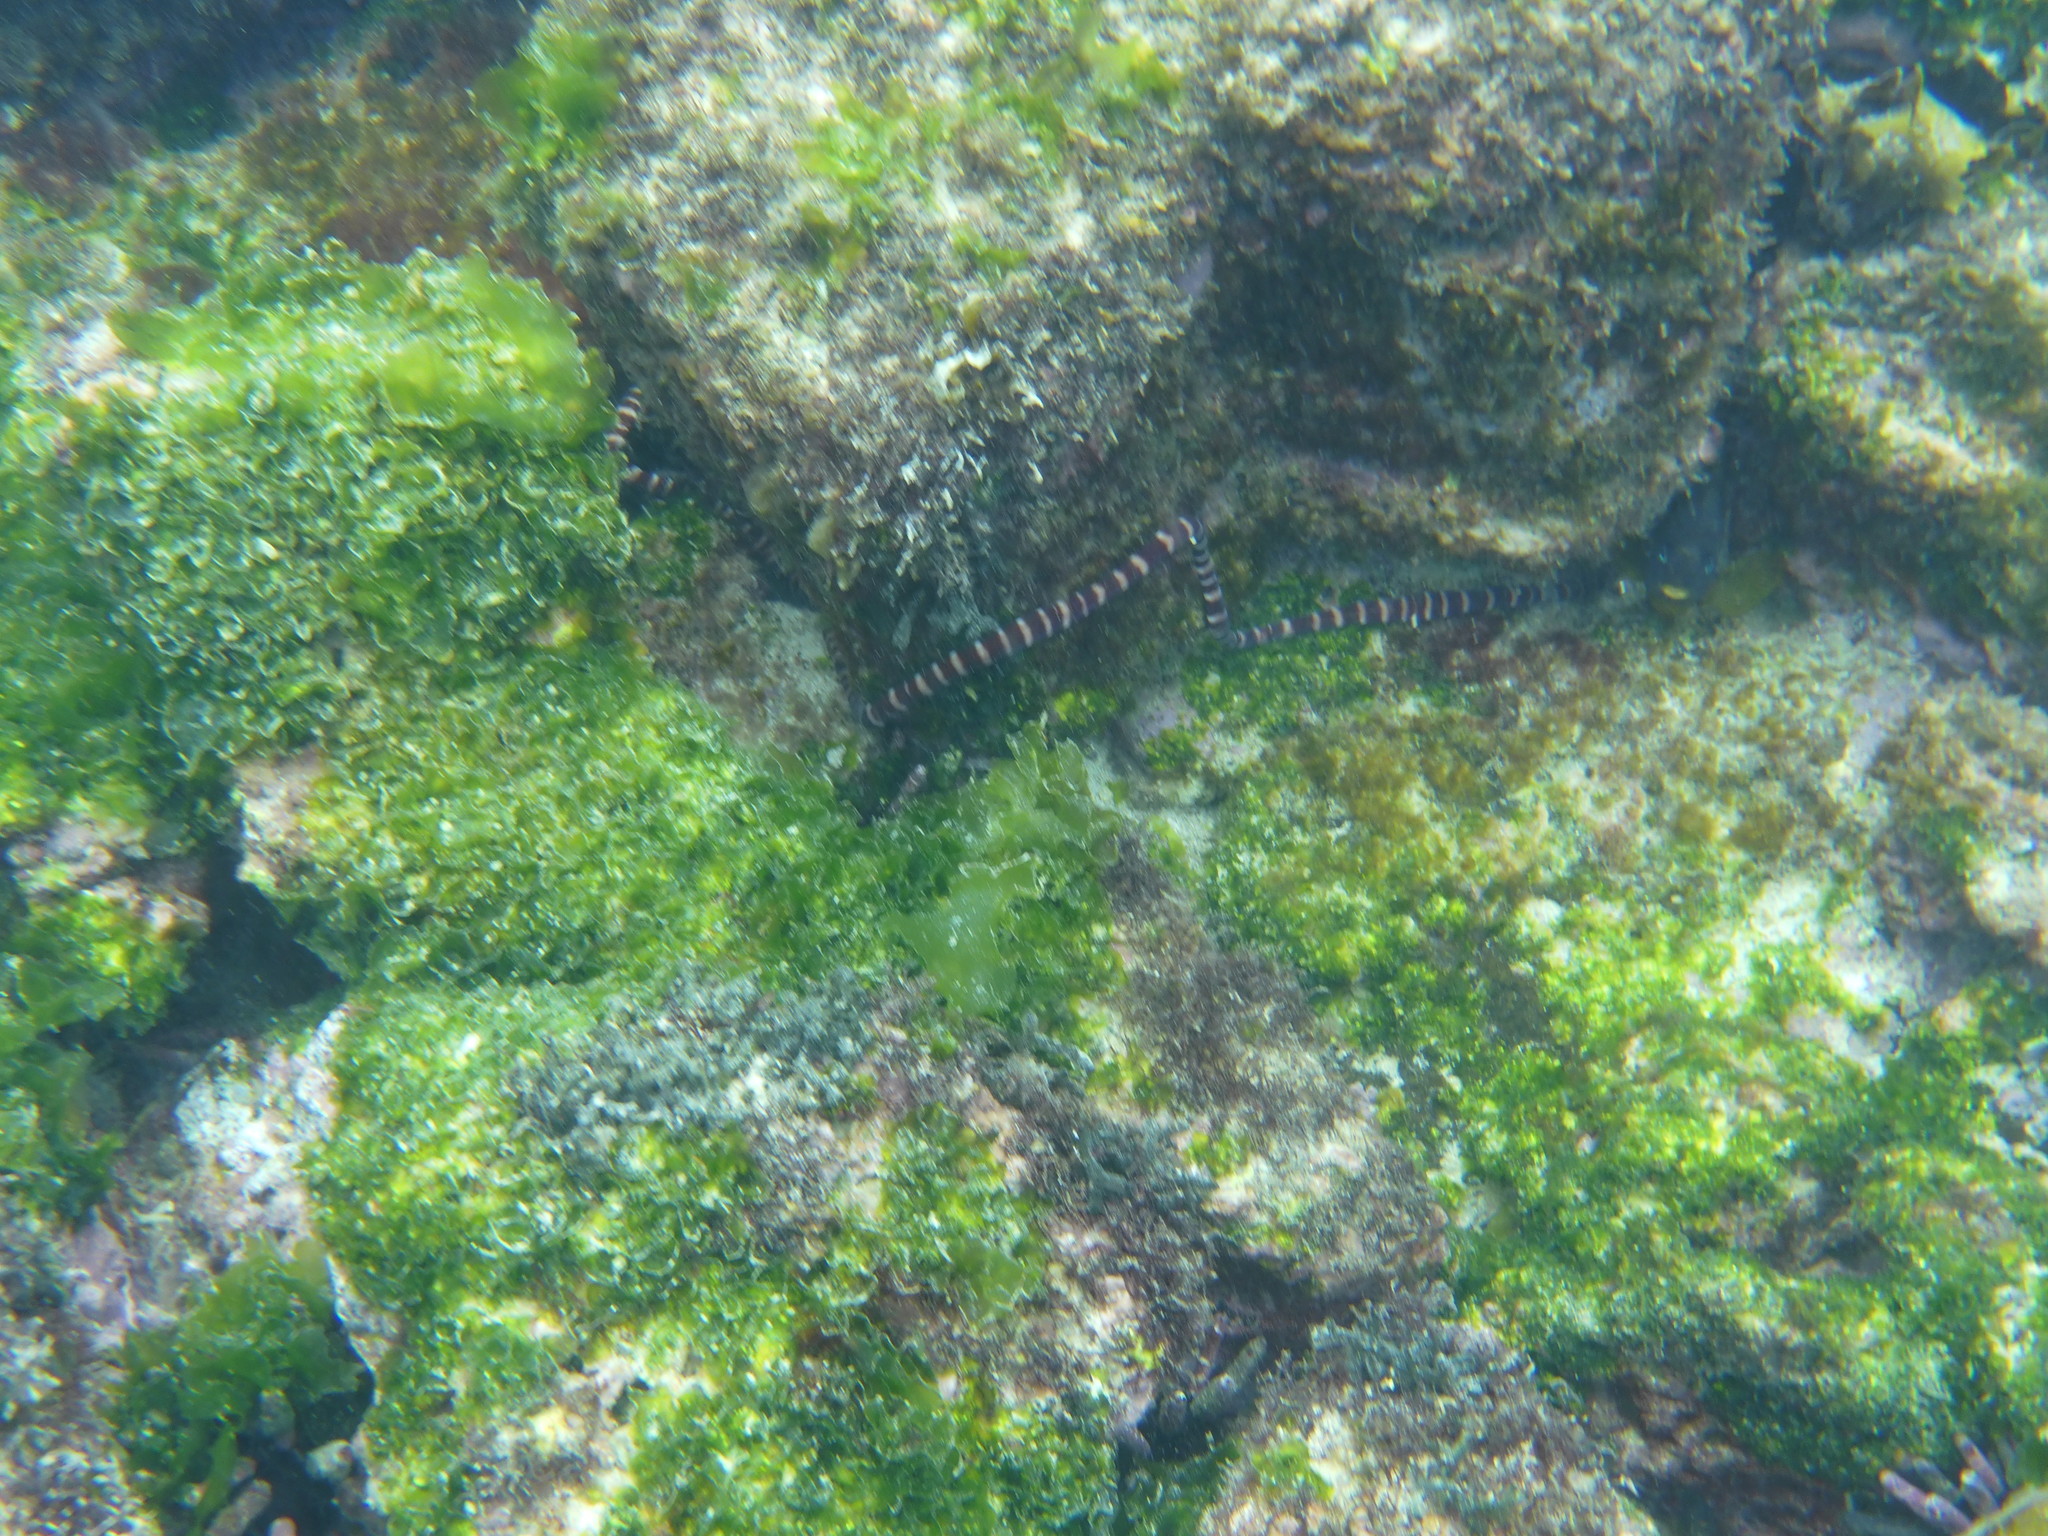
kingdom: Animalia
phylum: Chordata
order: Anguilliformes
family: Muraenidae
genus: Gymnomuraena
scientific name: Gymnomuraena zebra
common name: Zebra moray
